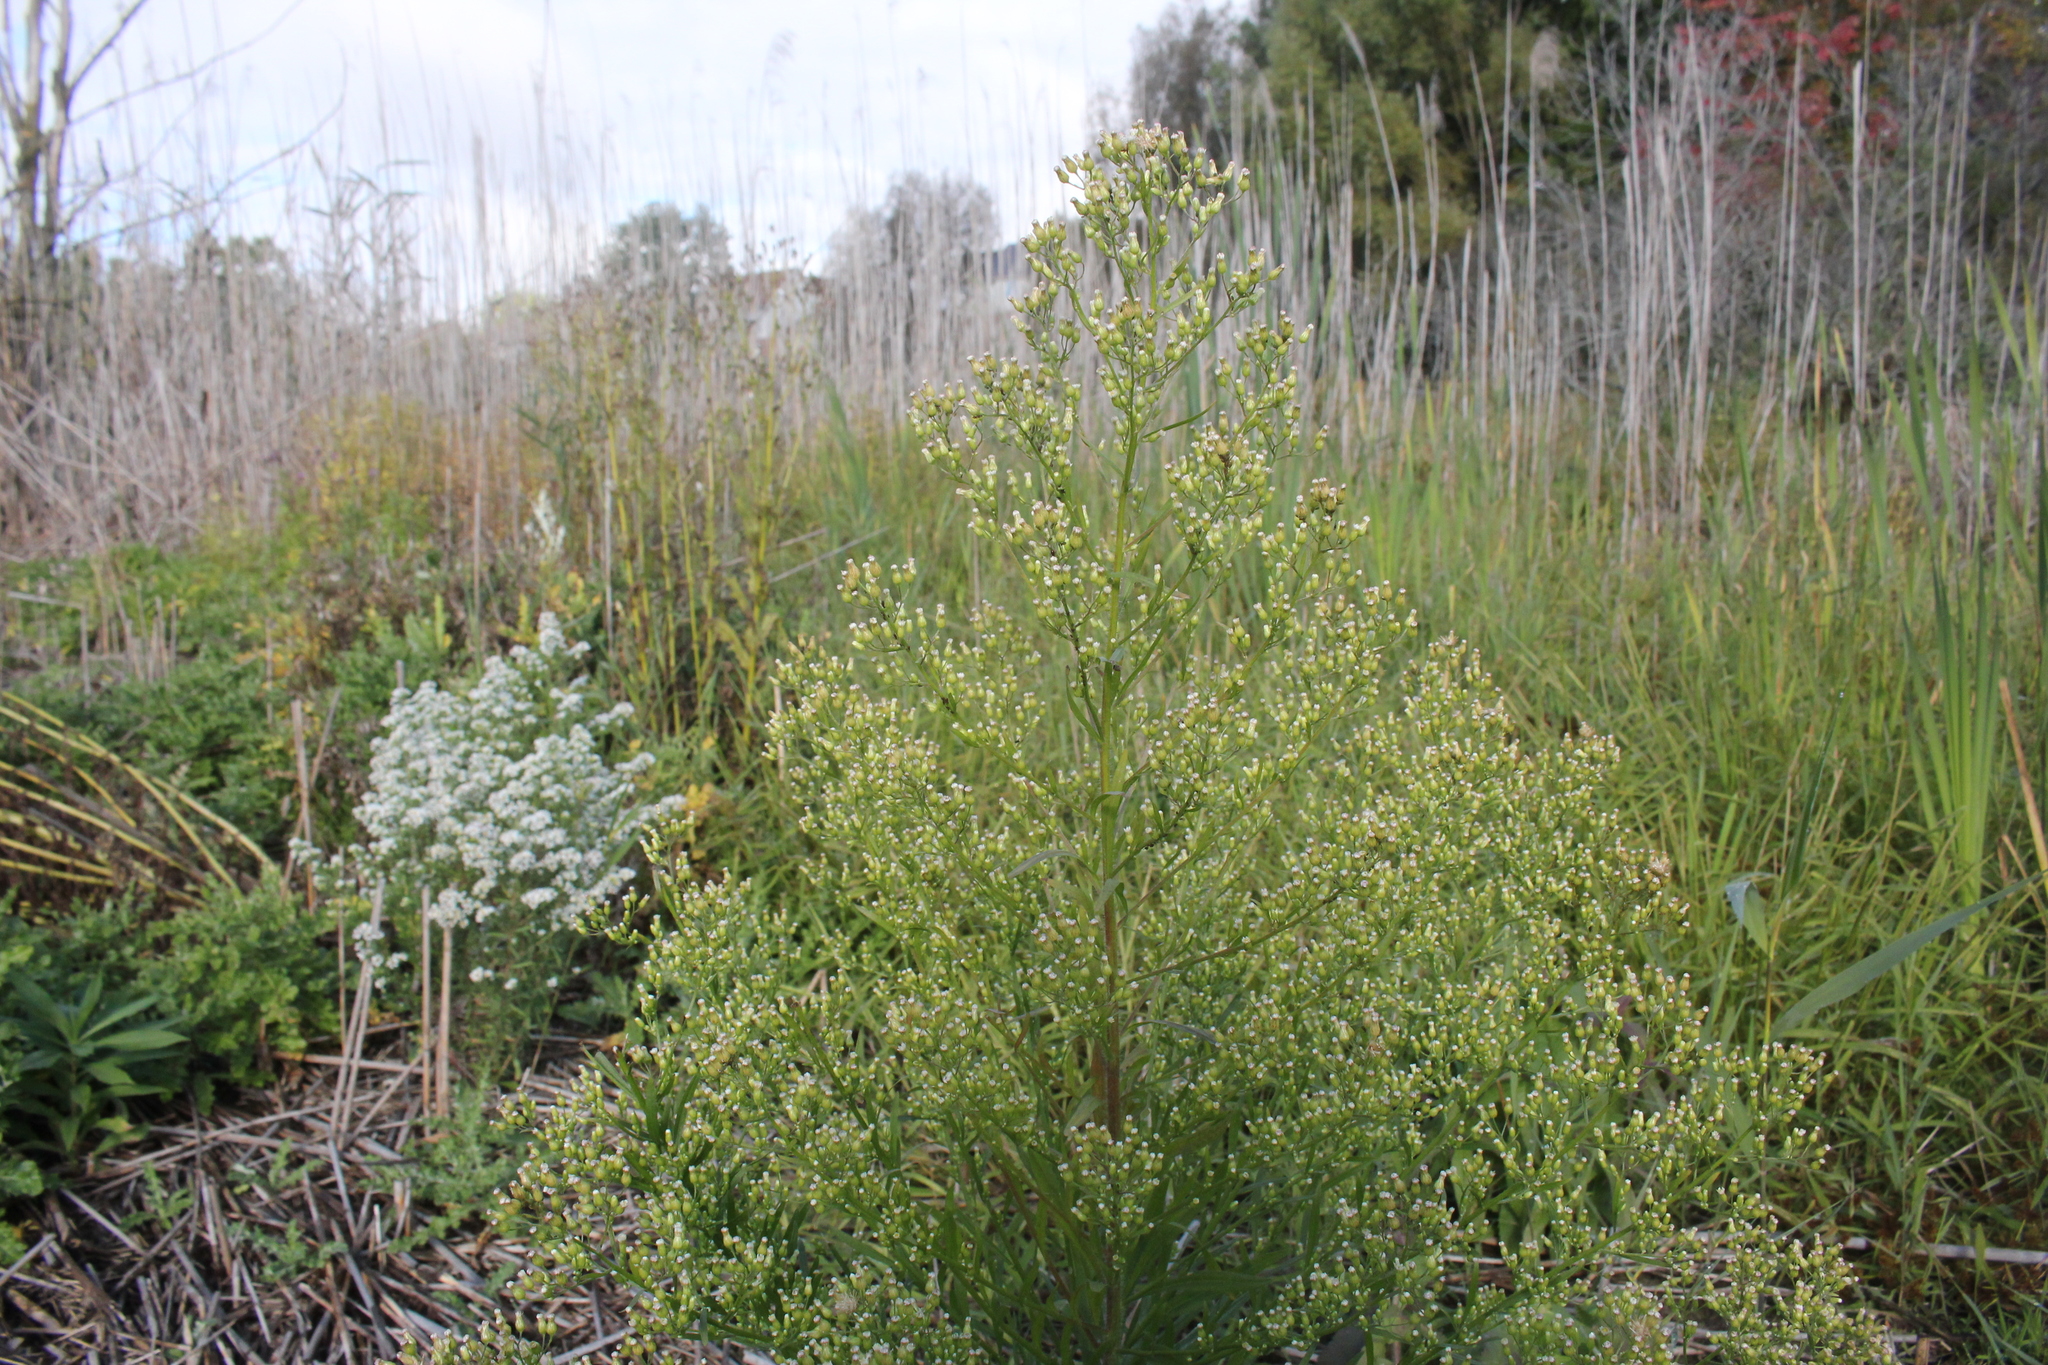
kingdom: Plantae
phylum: Tracheophyta
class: Magnoliopsida
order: Asterales
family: Asteraceae
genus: Erigeron
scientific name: Erigeron canadensis
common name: Canadian fleabane
